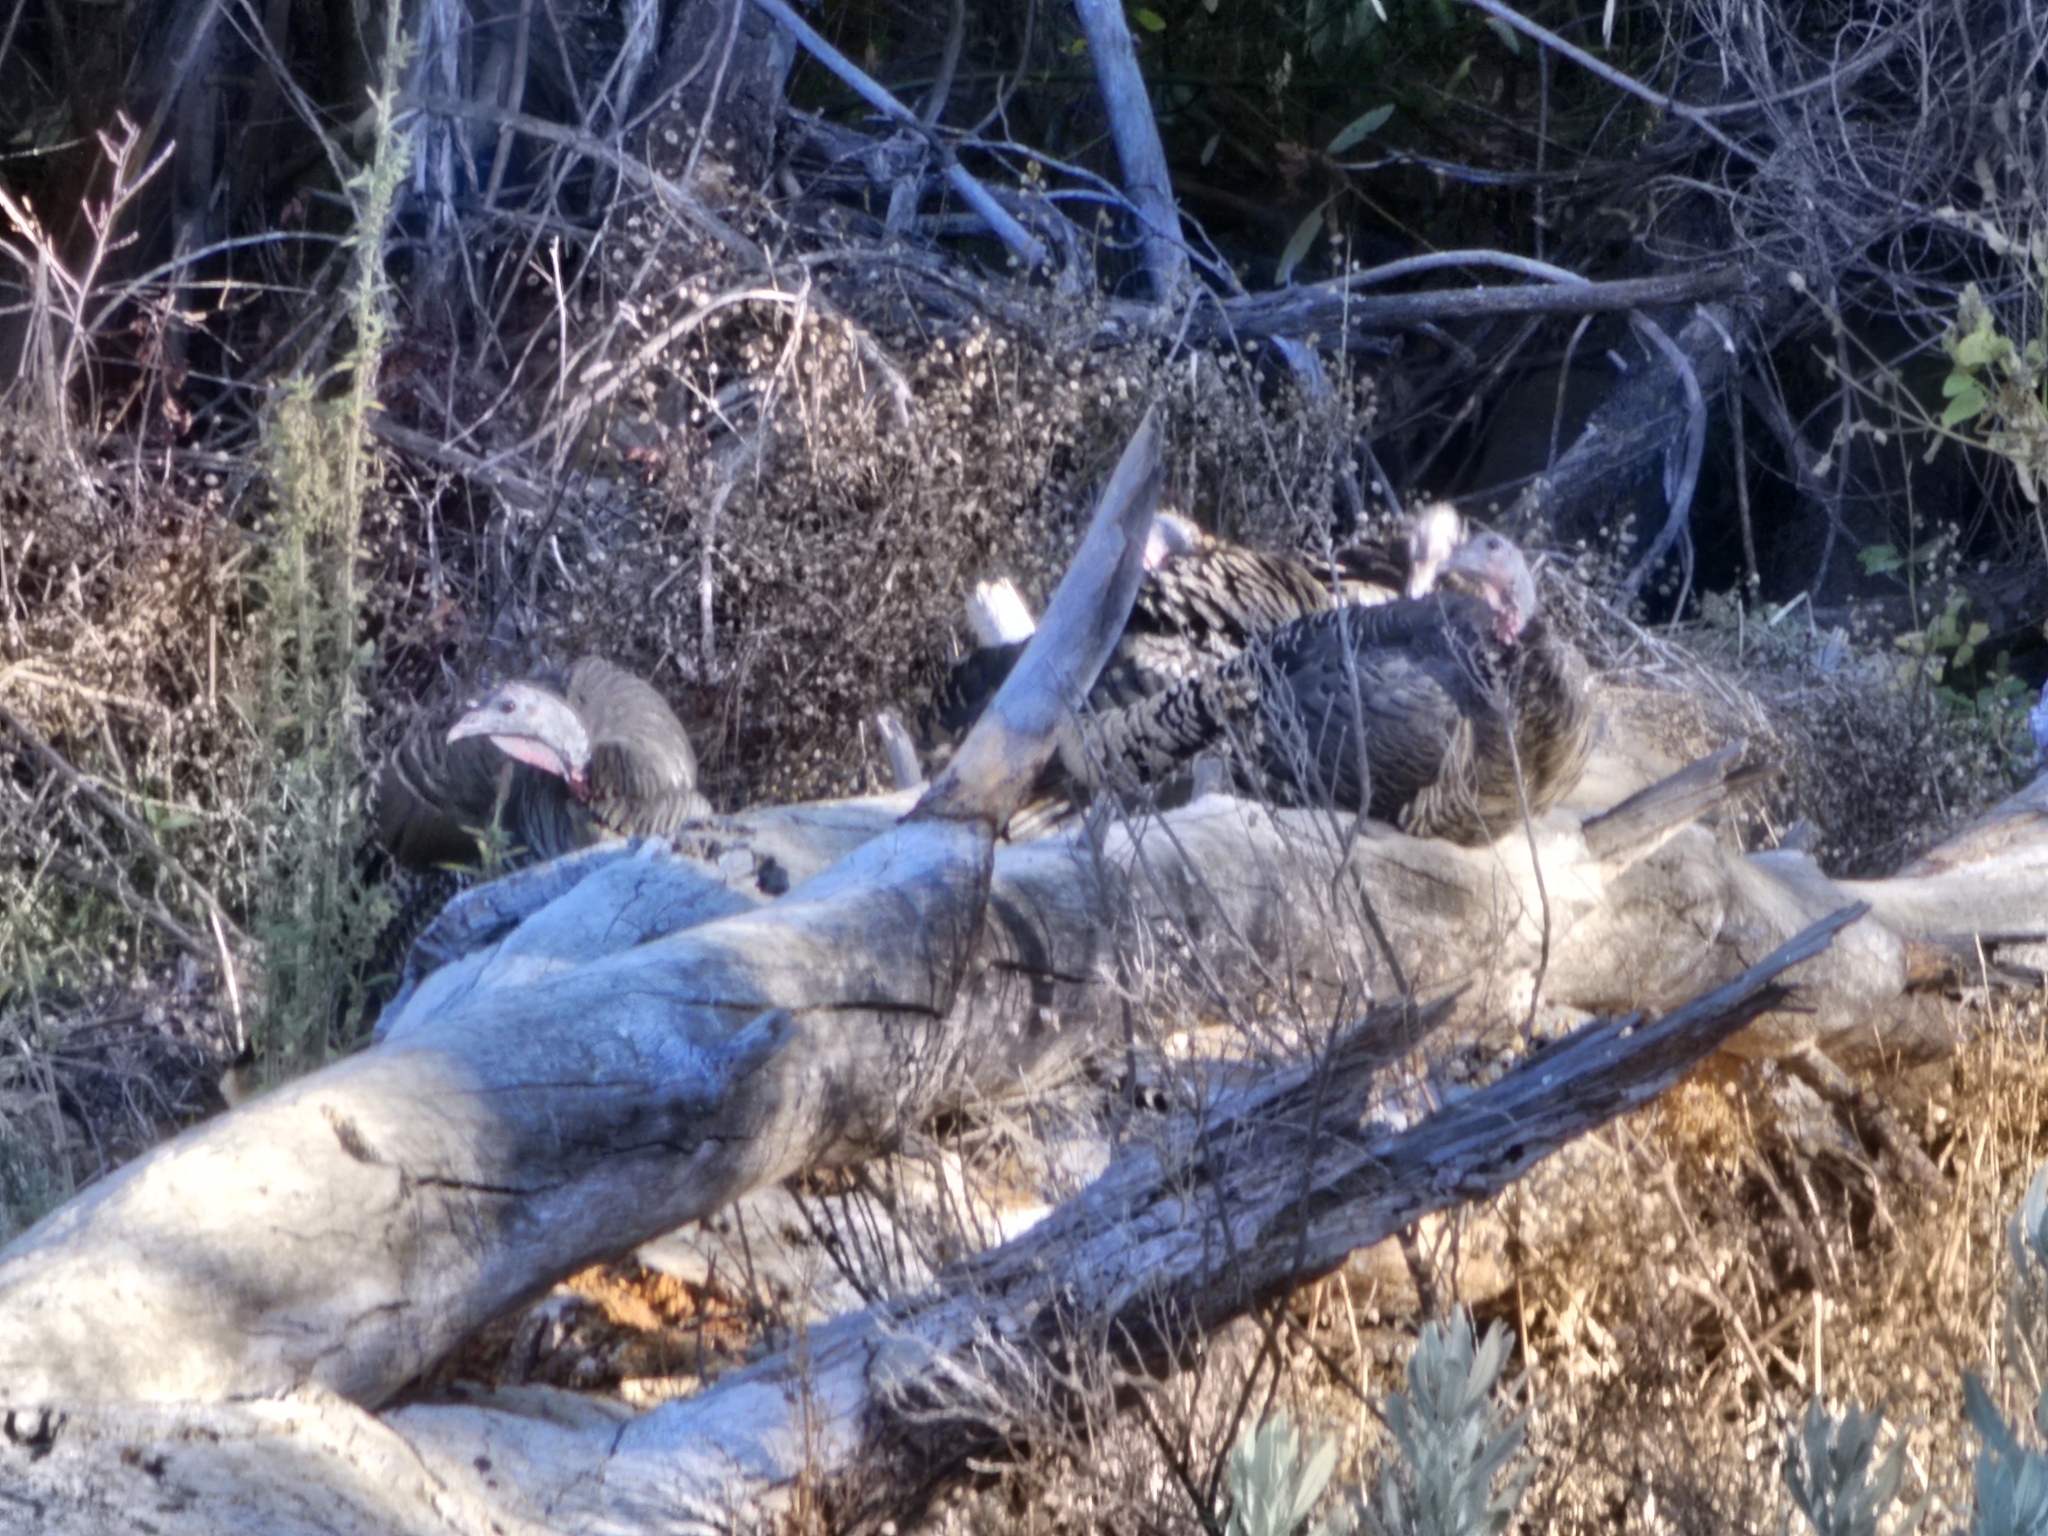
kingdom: Animalia
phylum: Chordata
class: Aves
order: Galliformes
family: Phasianidae
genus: Meleagris
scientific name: Meleagris gallopavo
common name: Wild turkey
